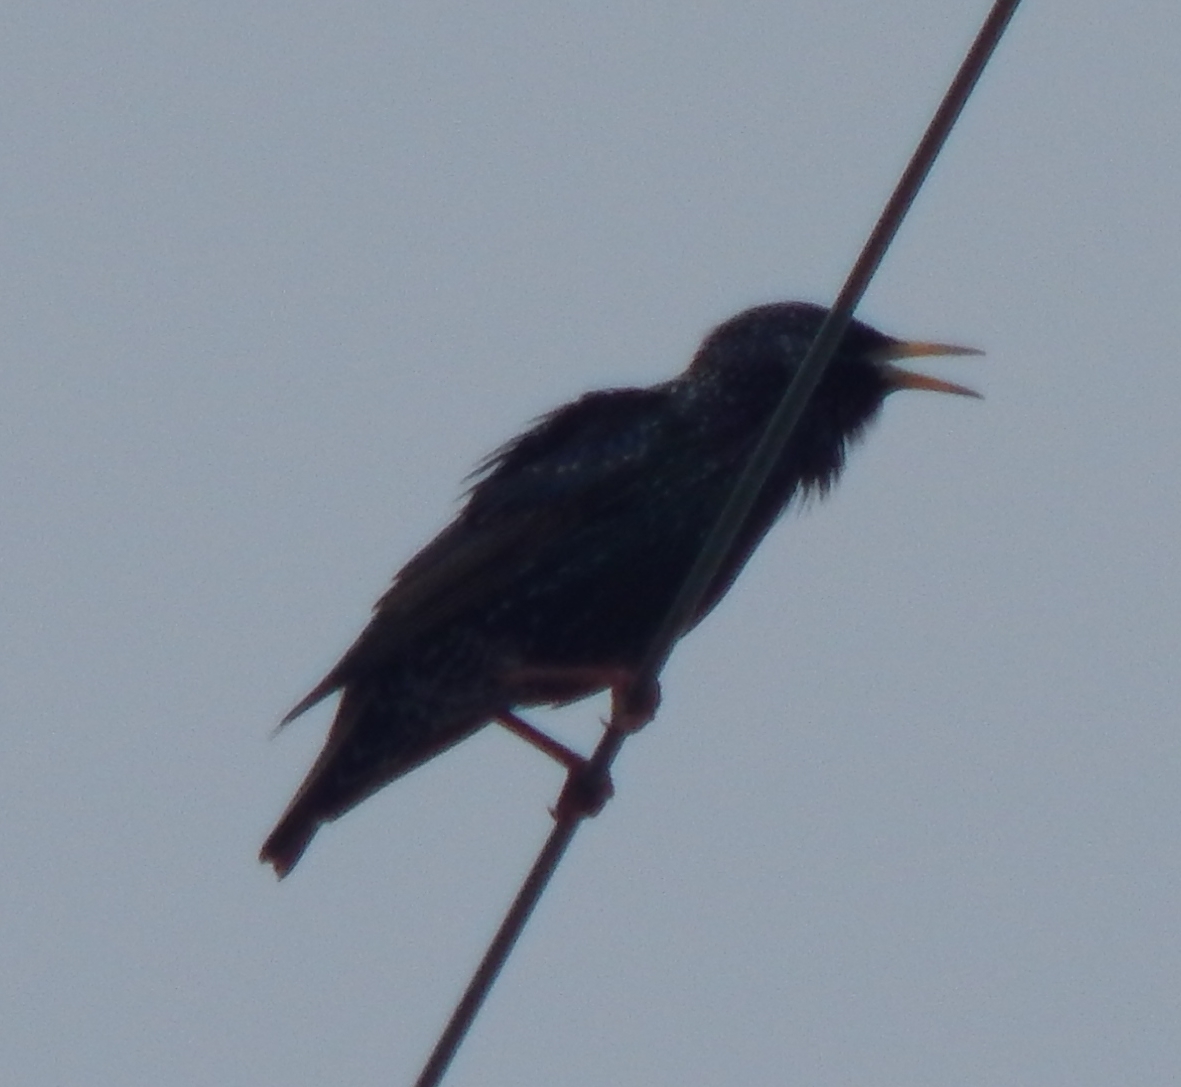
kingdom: Animalia
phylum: Chordata
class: Aves
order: Passeriformes
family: Sturnidae
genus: Sturnus
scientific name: Sturnus vulgaris
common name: Common starling
